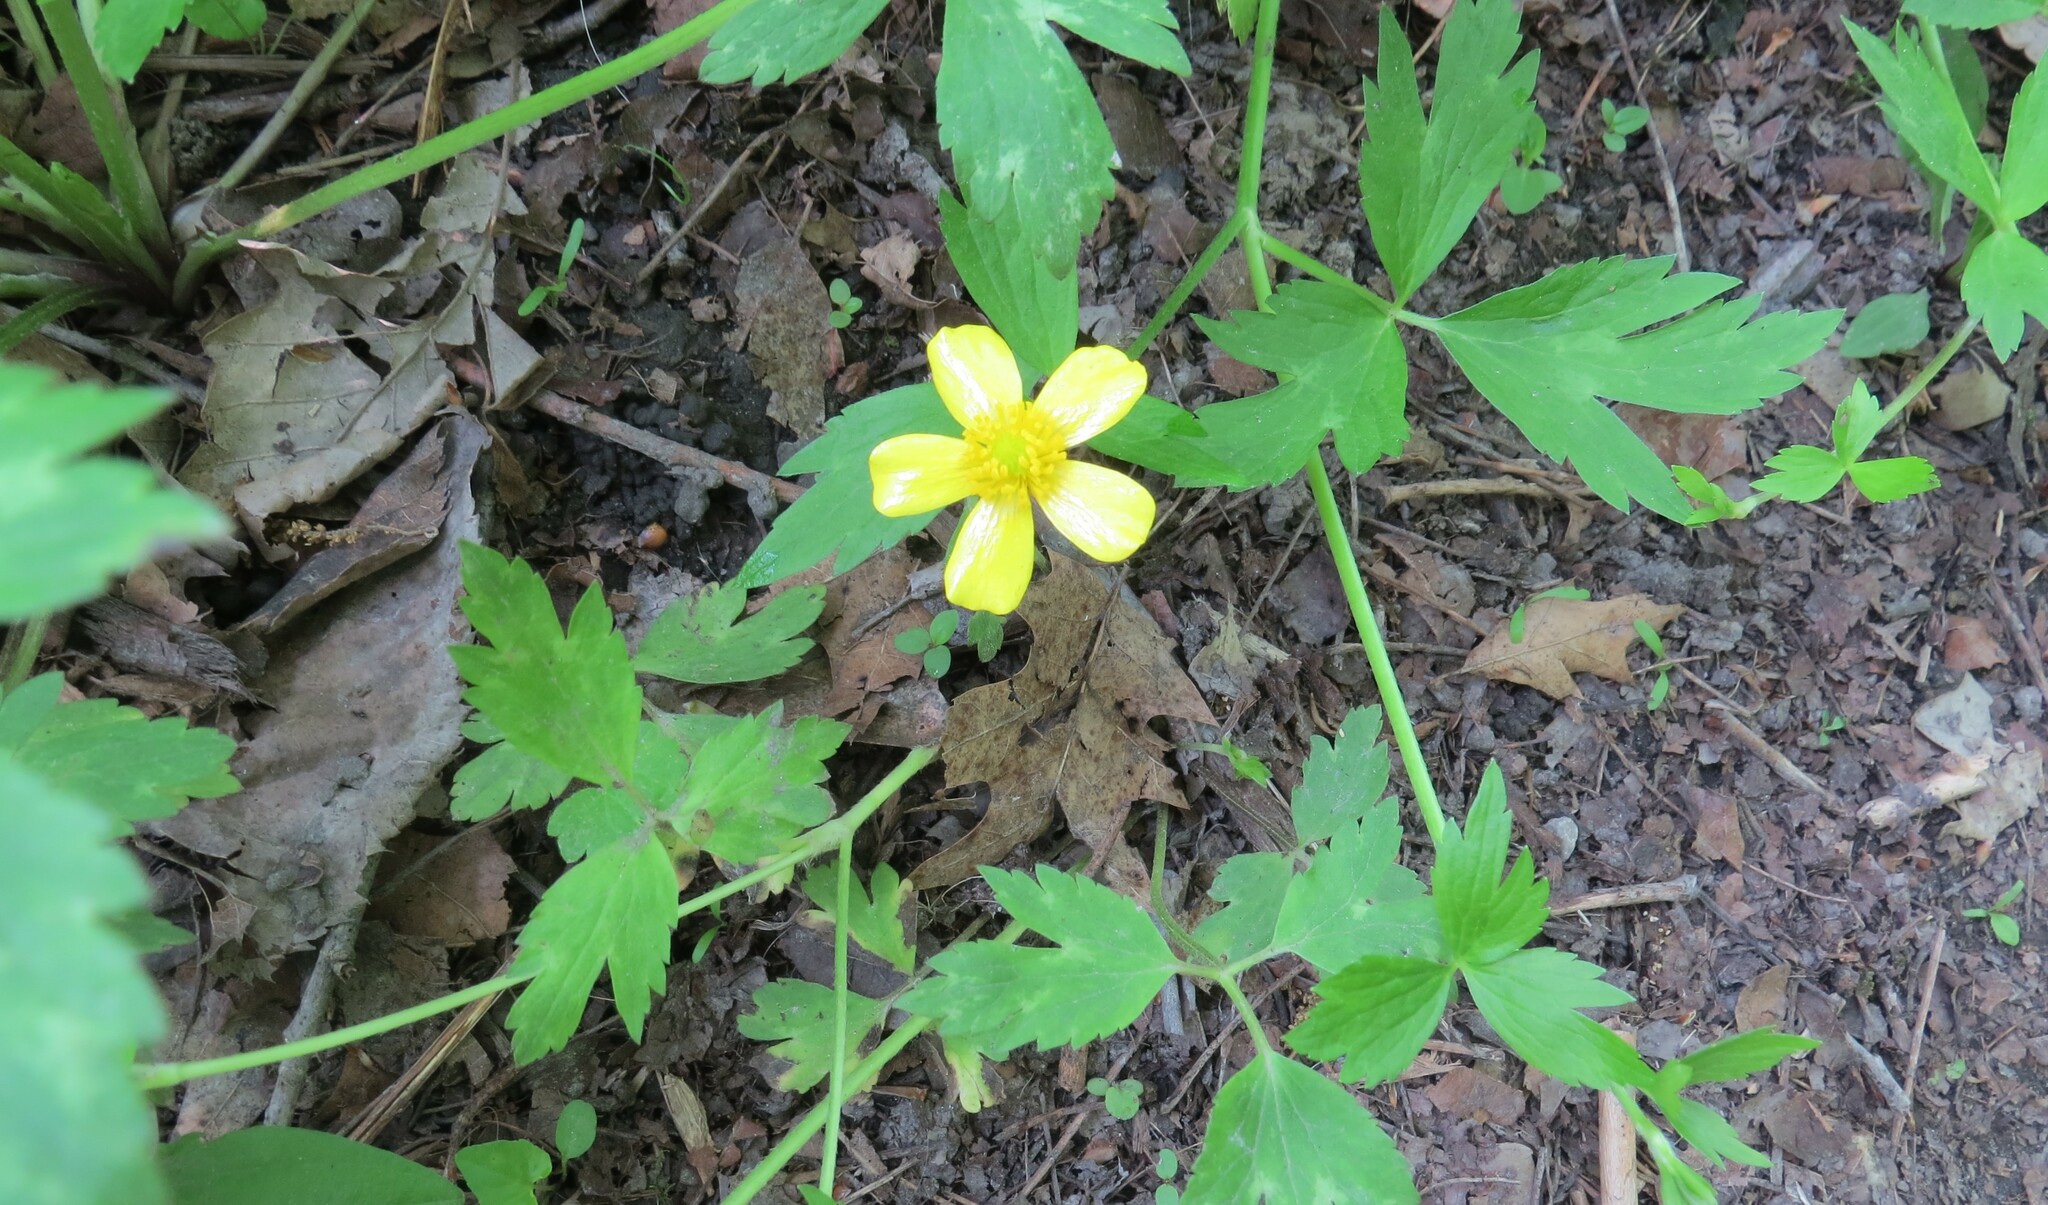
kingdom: Plantae
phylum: Tracheophyta
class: Magnoliopsida
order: Ranunculales
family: Ranunculaceae
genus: Ranunculus
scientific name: Ranunculus hispidus
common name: Bristly buttercup
